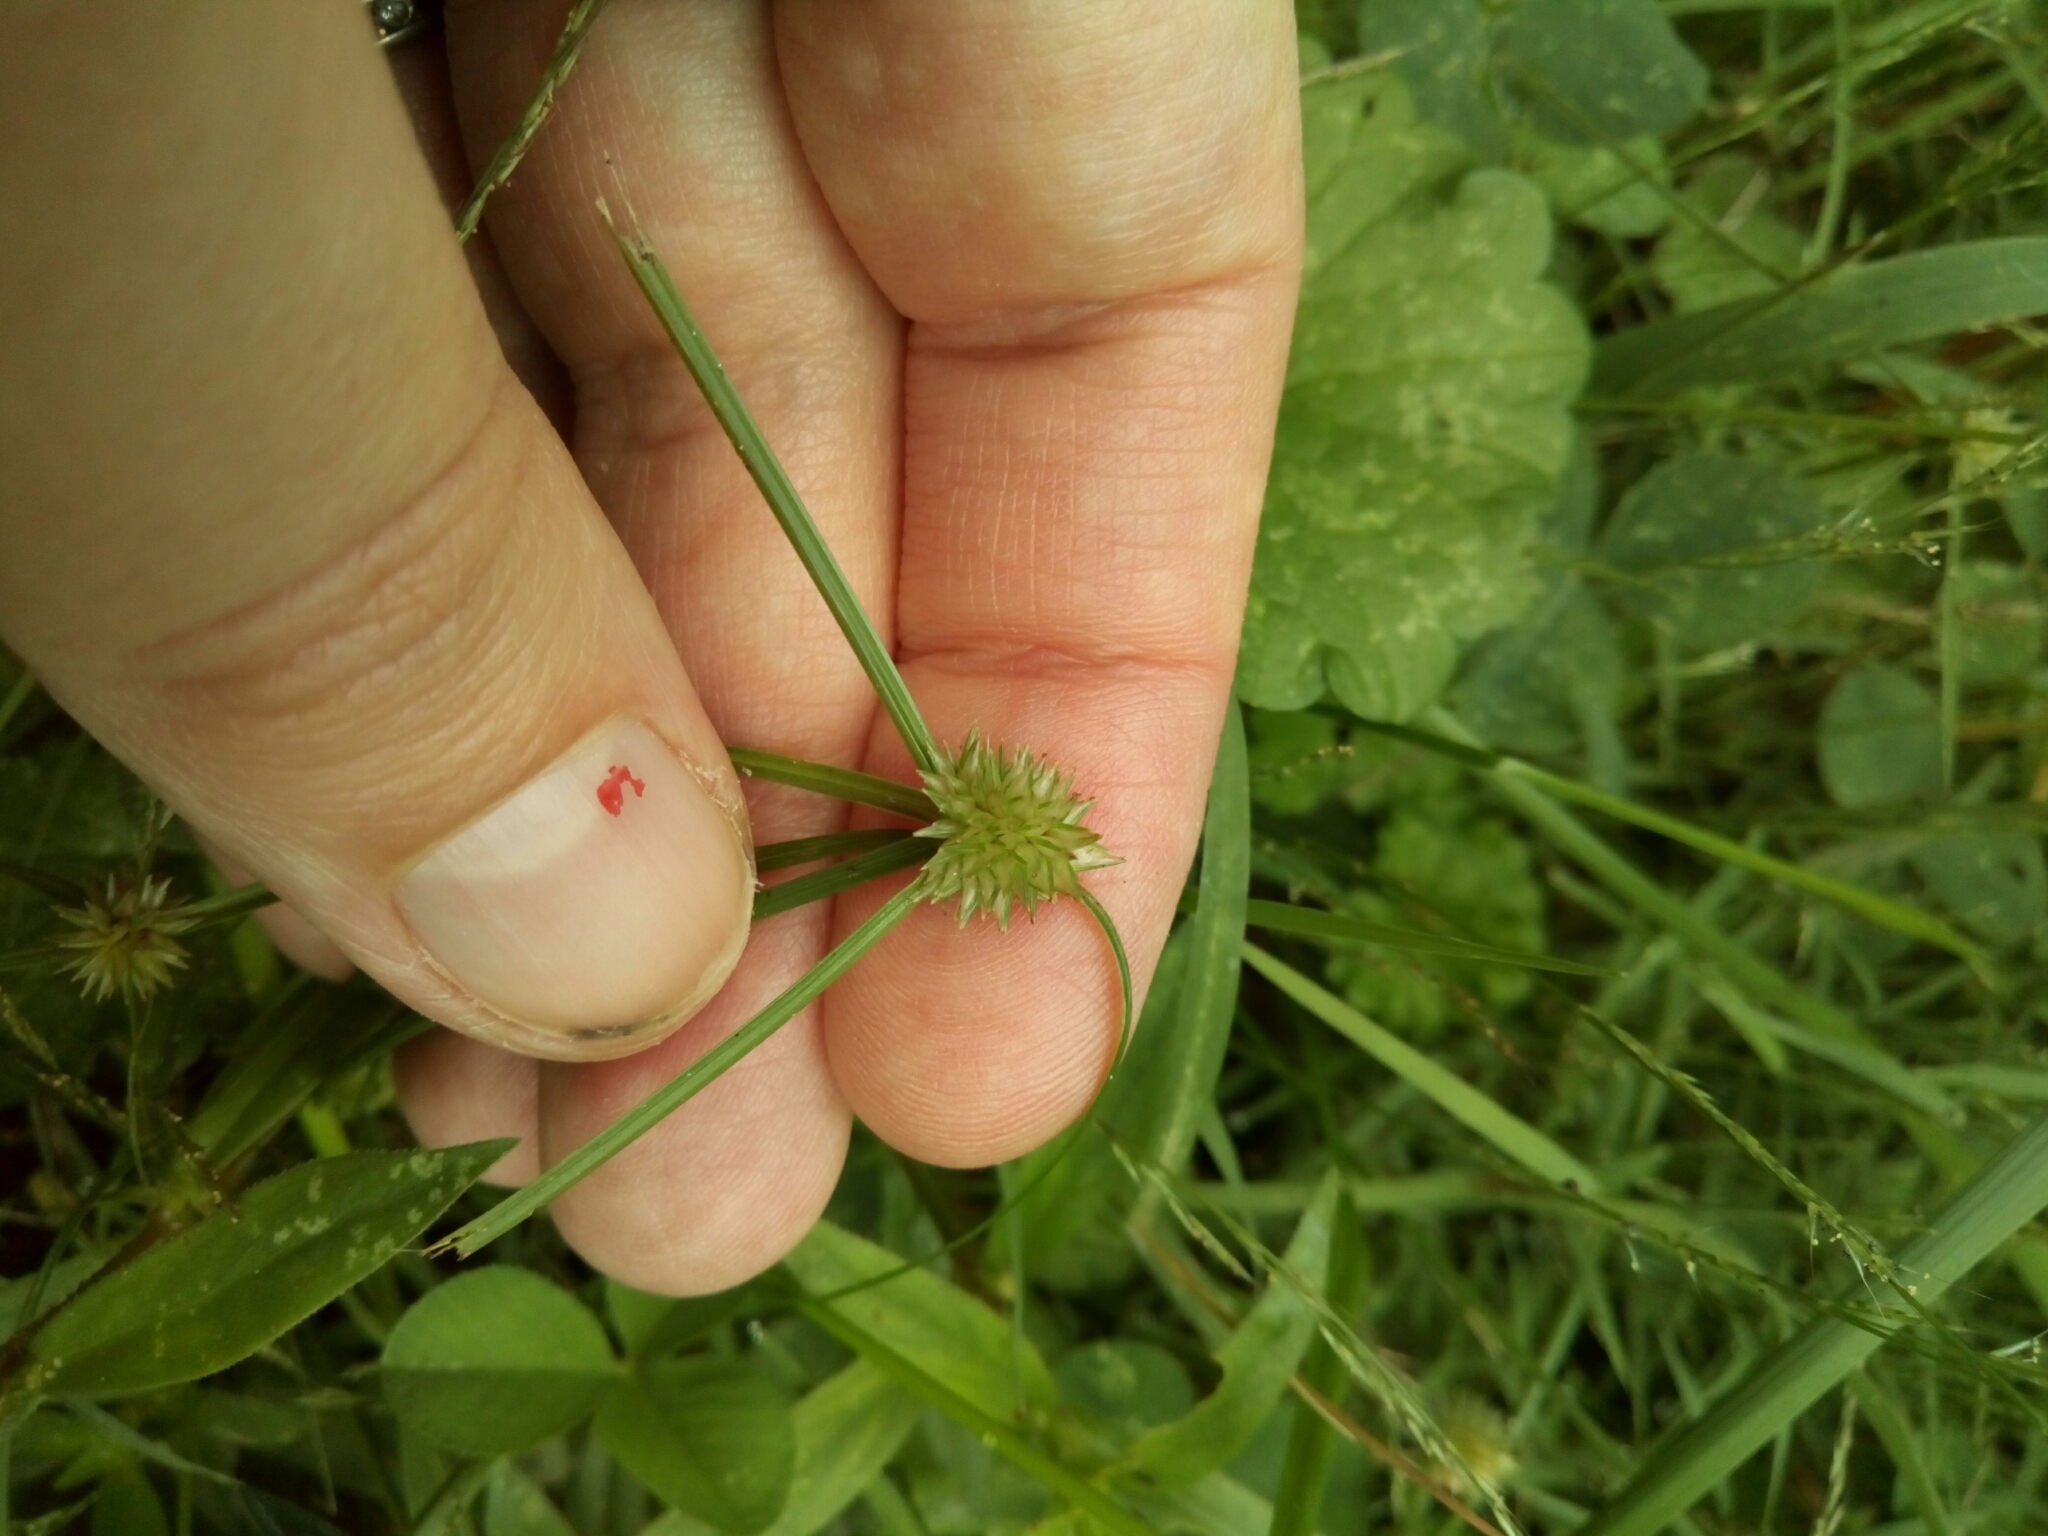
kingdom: Plantae
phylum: Tracheophyta
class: Liliopsida
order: Poales
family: Cyperaceae
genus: Cyperus
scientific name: Cyperus brevifolius
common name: Globe kyllinga
